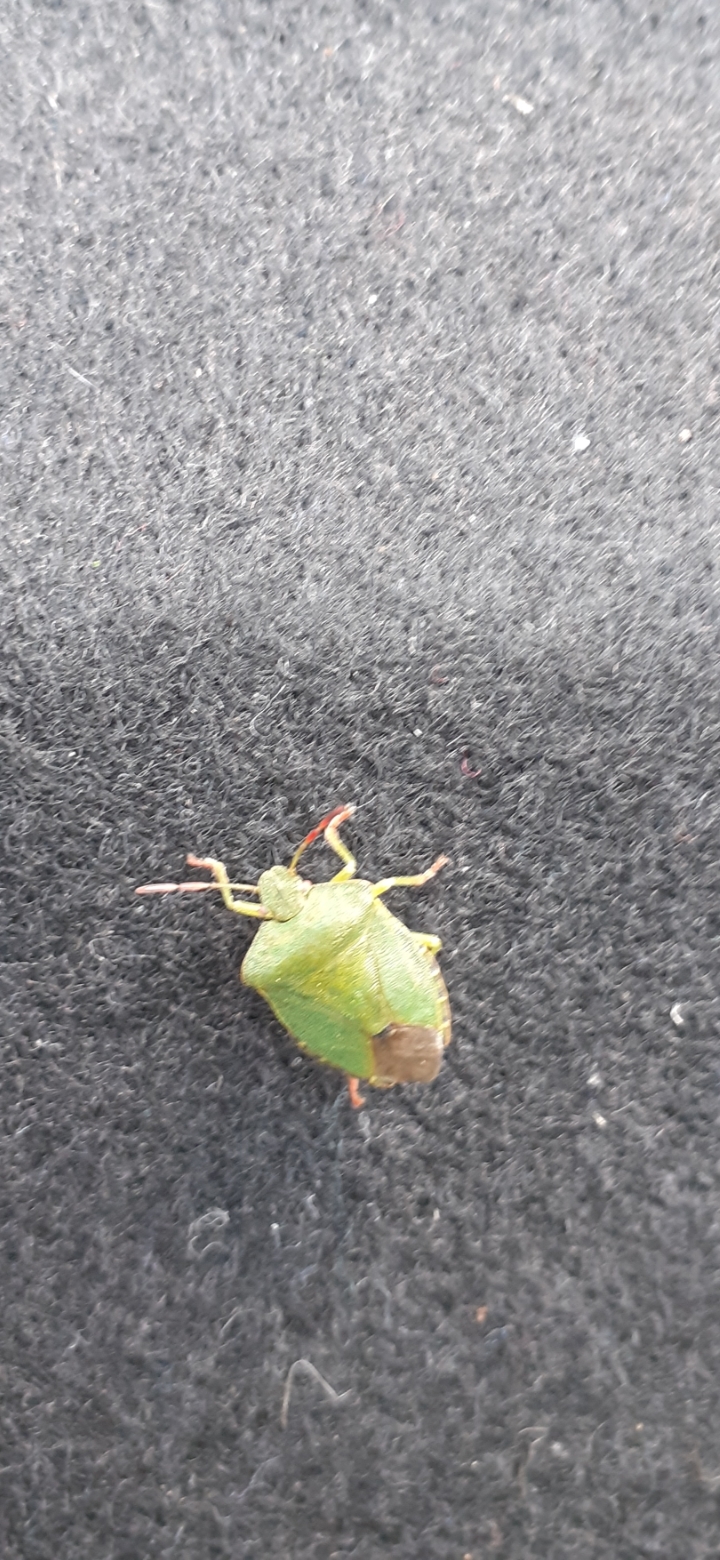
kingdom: Animalia
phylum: Arthropoda
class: Insecta
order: Hemiptera
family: Pentatomidae
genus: Palomena
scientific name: Palomena prasina
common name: Green shieldbug
